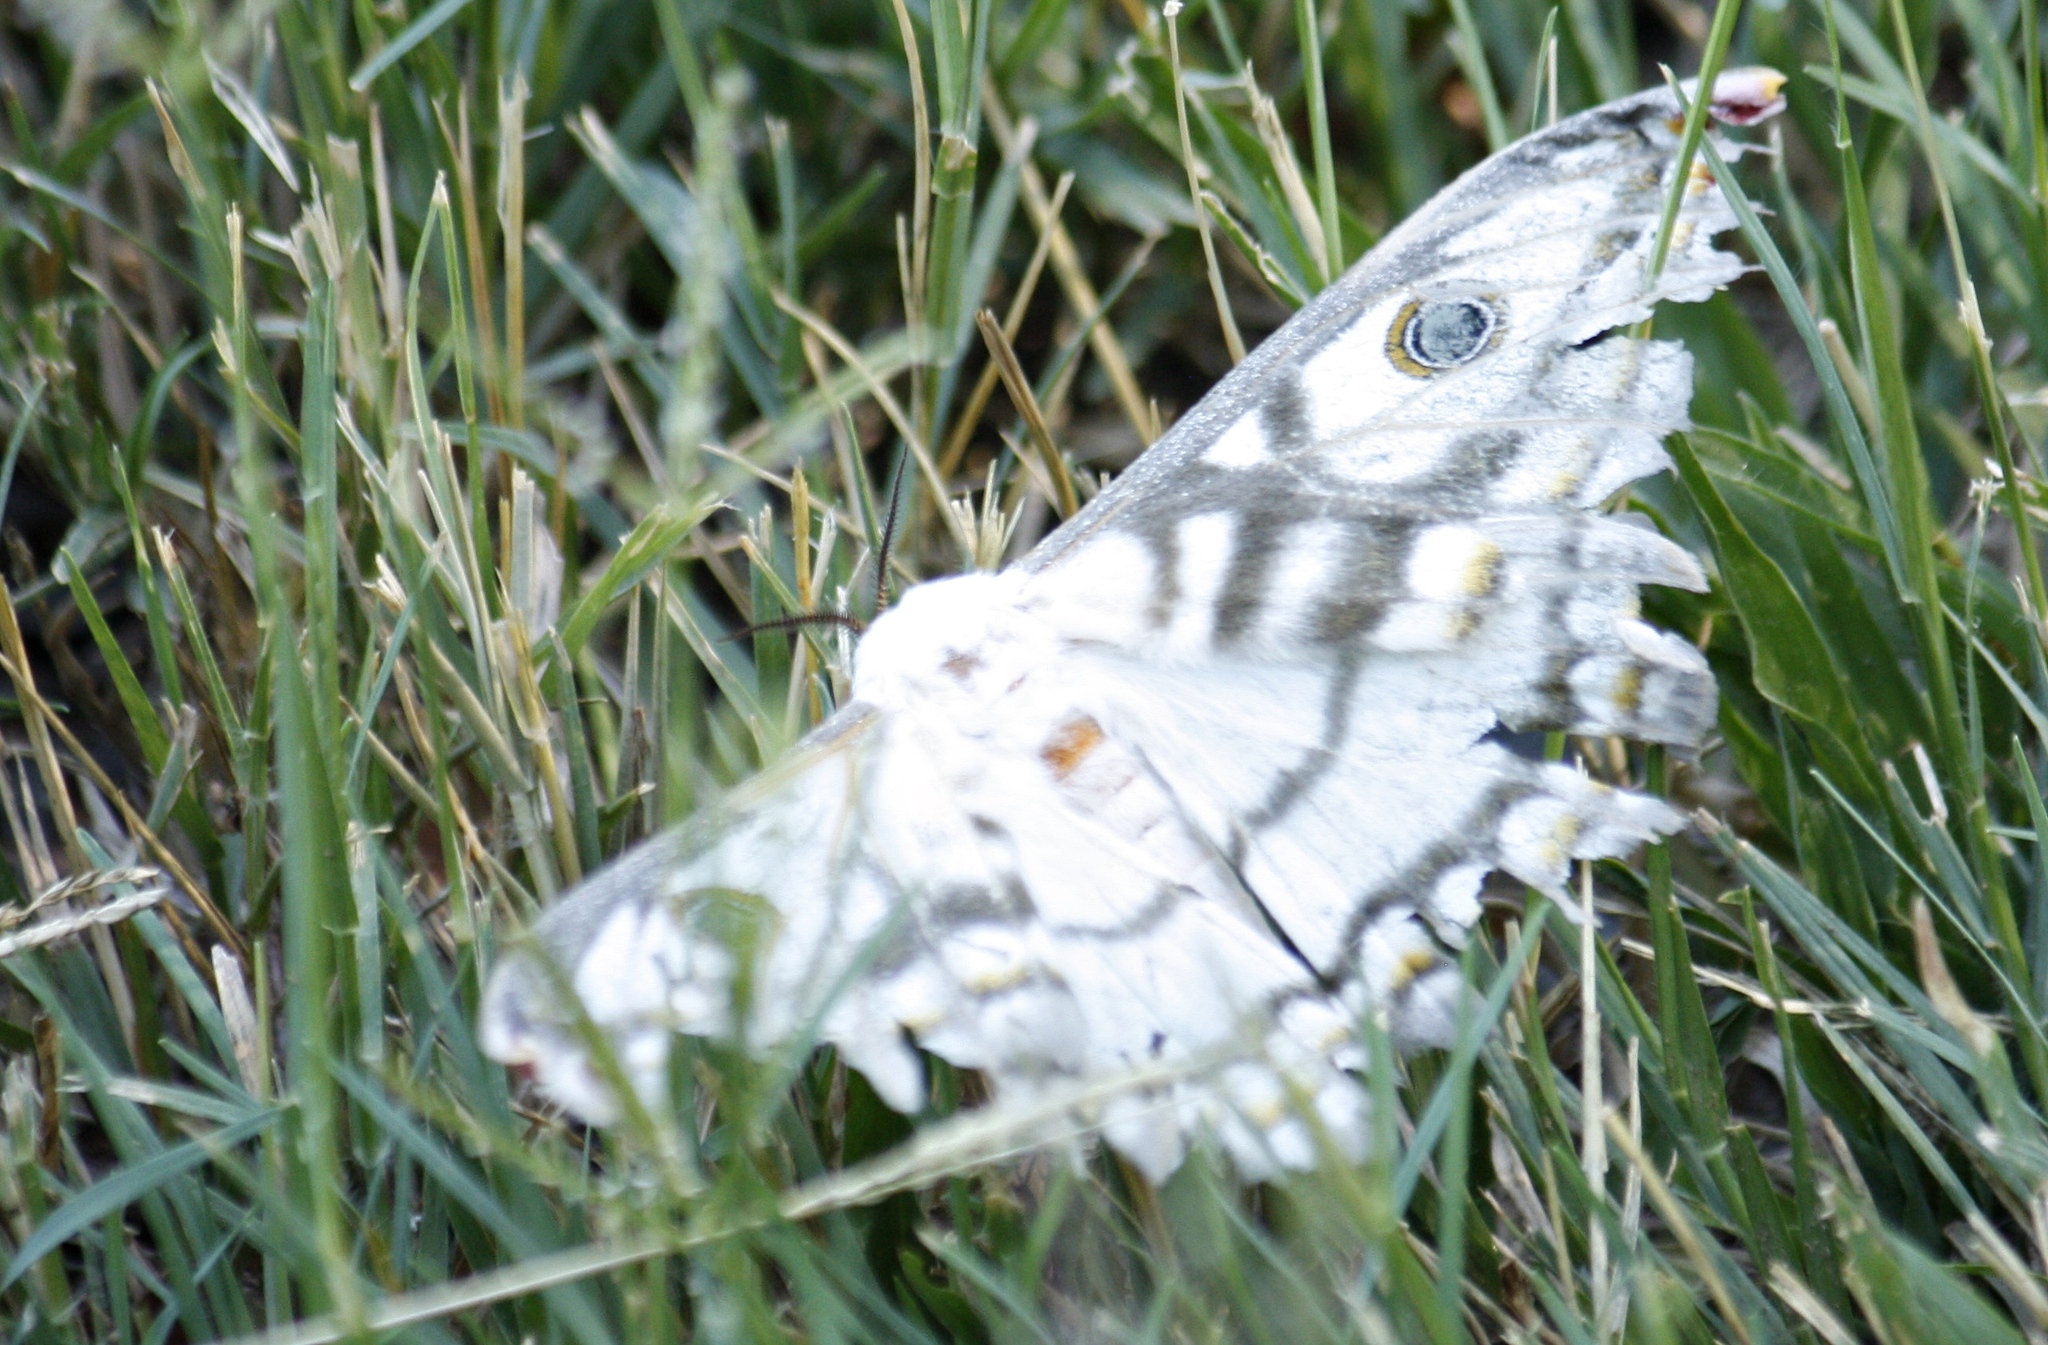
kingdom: Animalia
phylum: Arthropoda
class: Insecta
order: Lepidoptera
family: Saturniidae
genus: Heniocha
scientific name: Heniocha marnois
